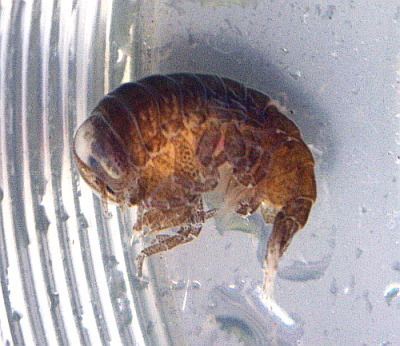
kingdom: Animalia
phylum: Arthropoda
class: Malacostraca
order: Amphipoda
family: Hyperiidae
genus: Hyperia
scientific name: Hyperia galba
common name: Big-eye amphipod
